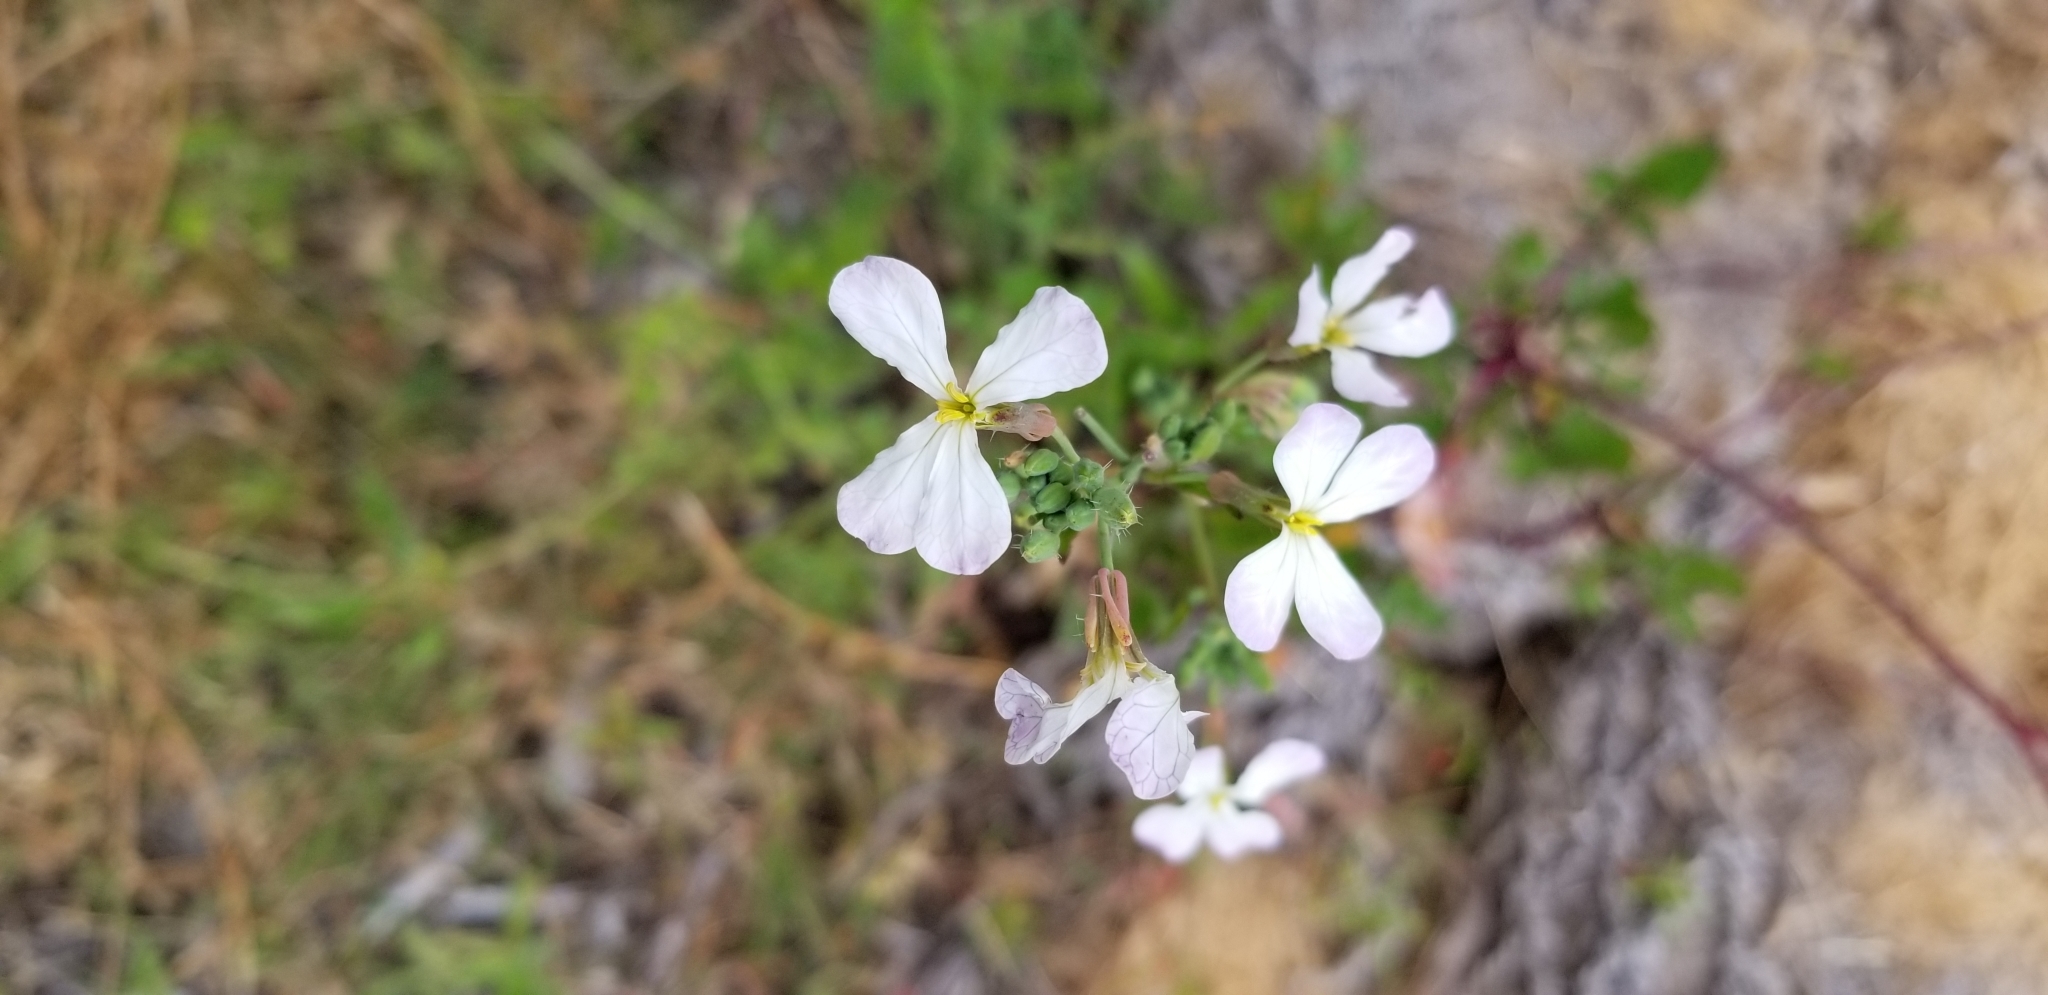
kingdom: Plantae
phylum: Tracheophyta
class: Magnoliopsida
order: Brassicales
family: Brassicaceae
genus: Raphanus
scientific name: Raphanus sativus
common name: Cultivated radish
